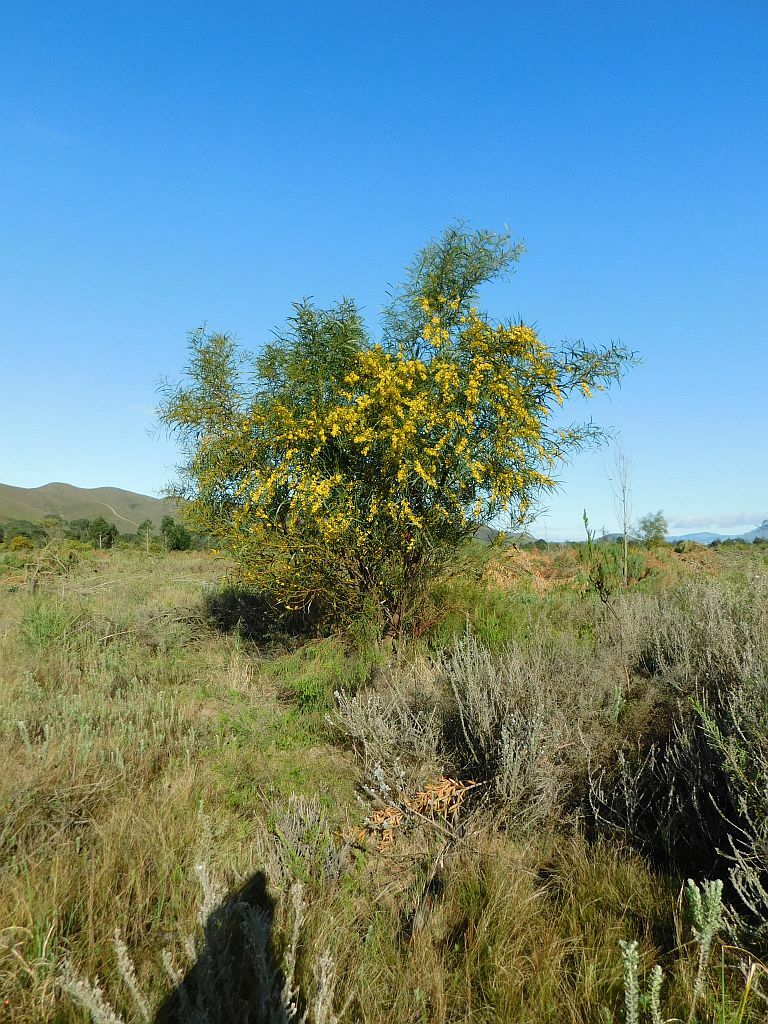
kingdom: Plantae
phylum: Tracheophyta
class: Magnoliopsida
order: Fabales
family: Fabaceae
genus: Acacia
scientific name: Acacia saligna
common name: Orange wattle
